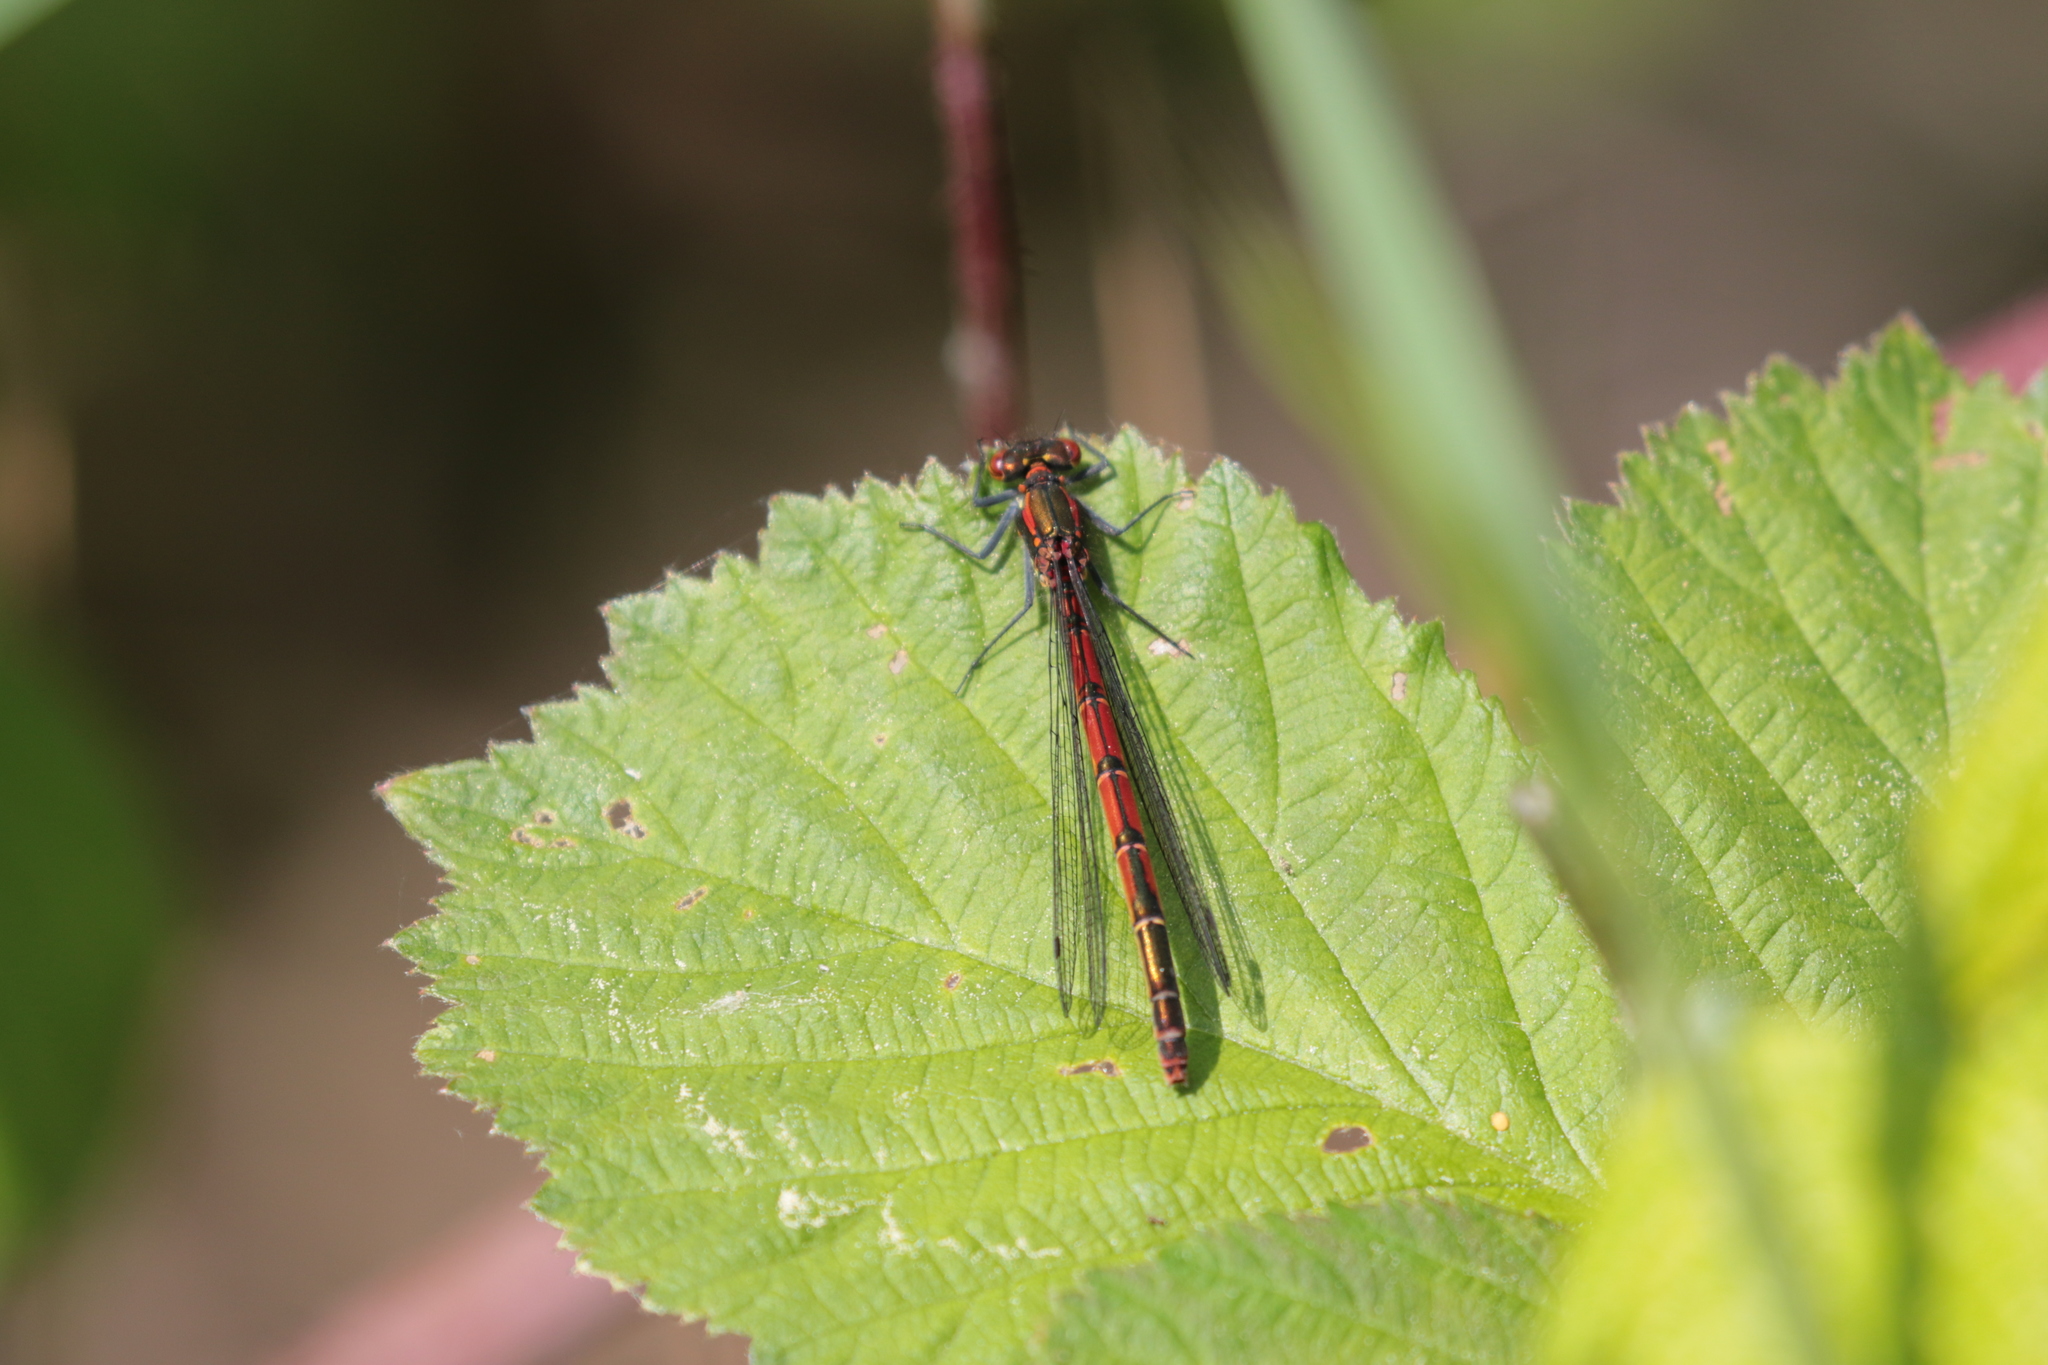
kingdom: Animalia
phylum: Arthropoda
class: Insecta
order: Odonata
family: Coenagrionidae
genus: Pyrrhosoma
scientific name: Pyrrhosoma nymphula
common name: Large red damsel
